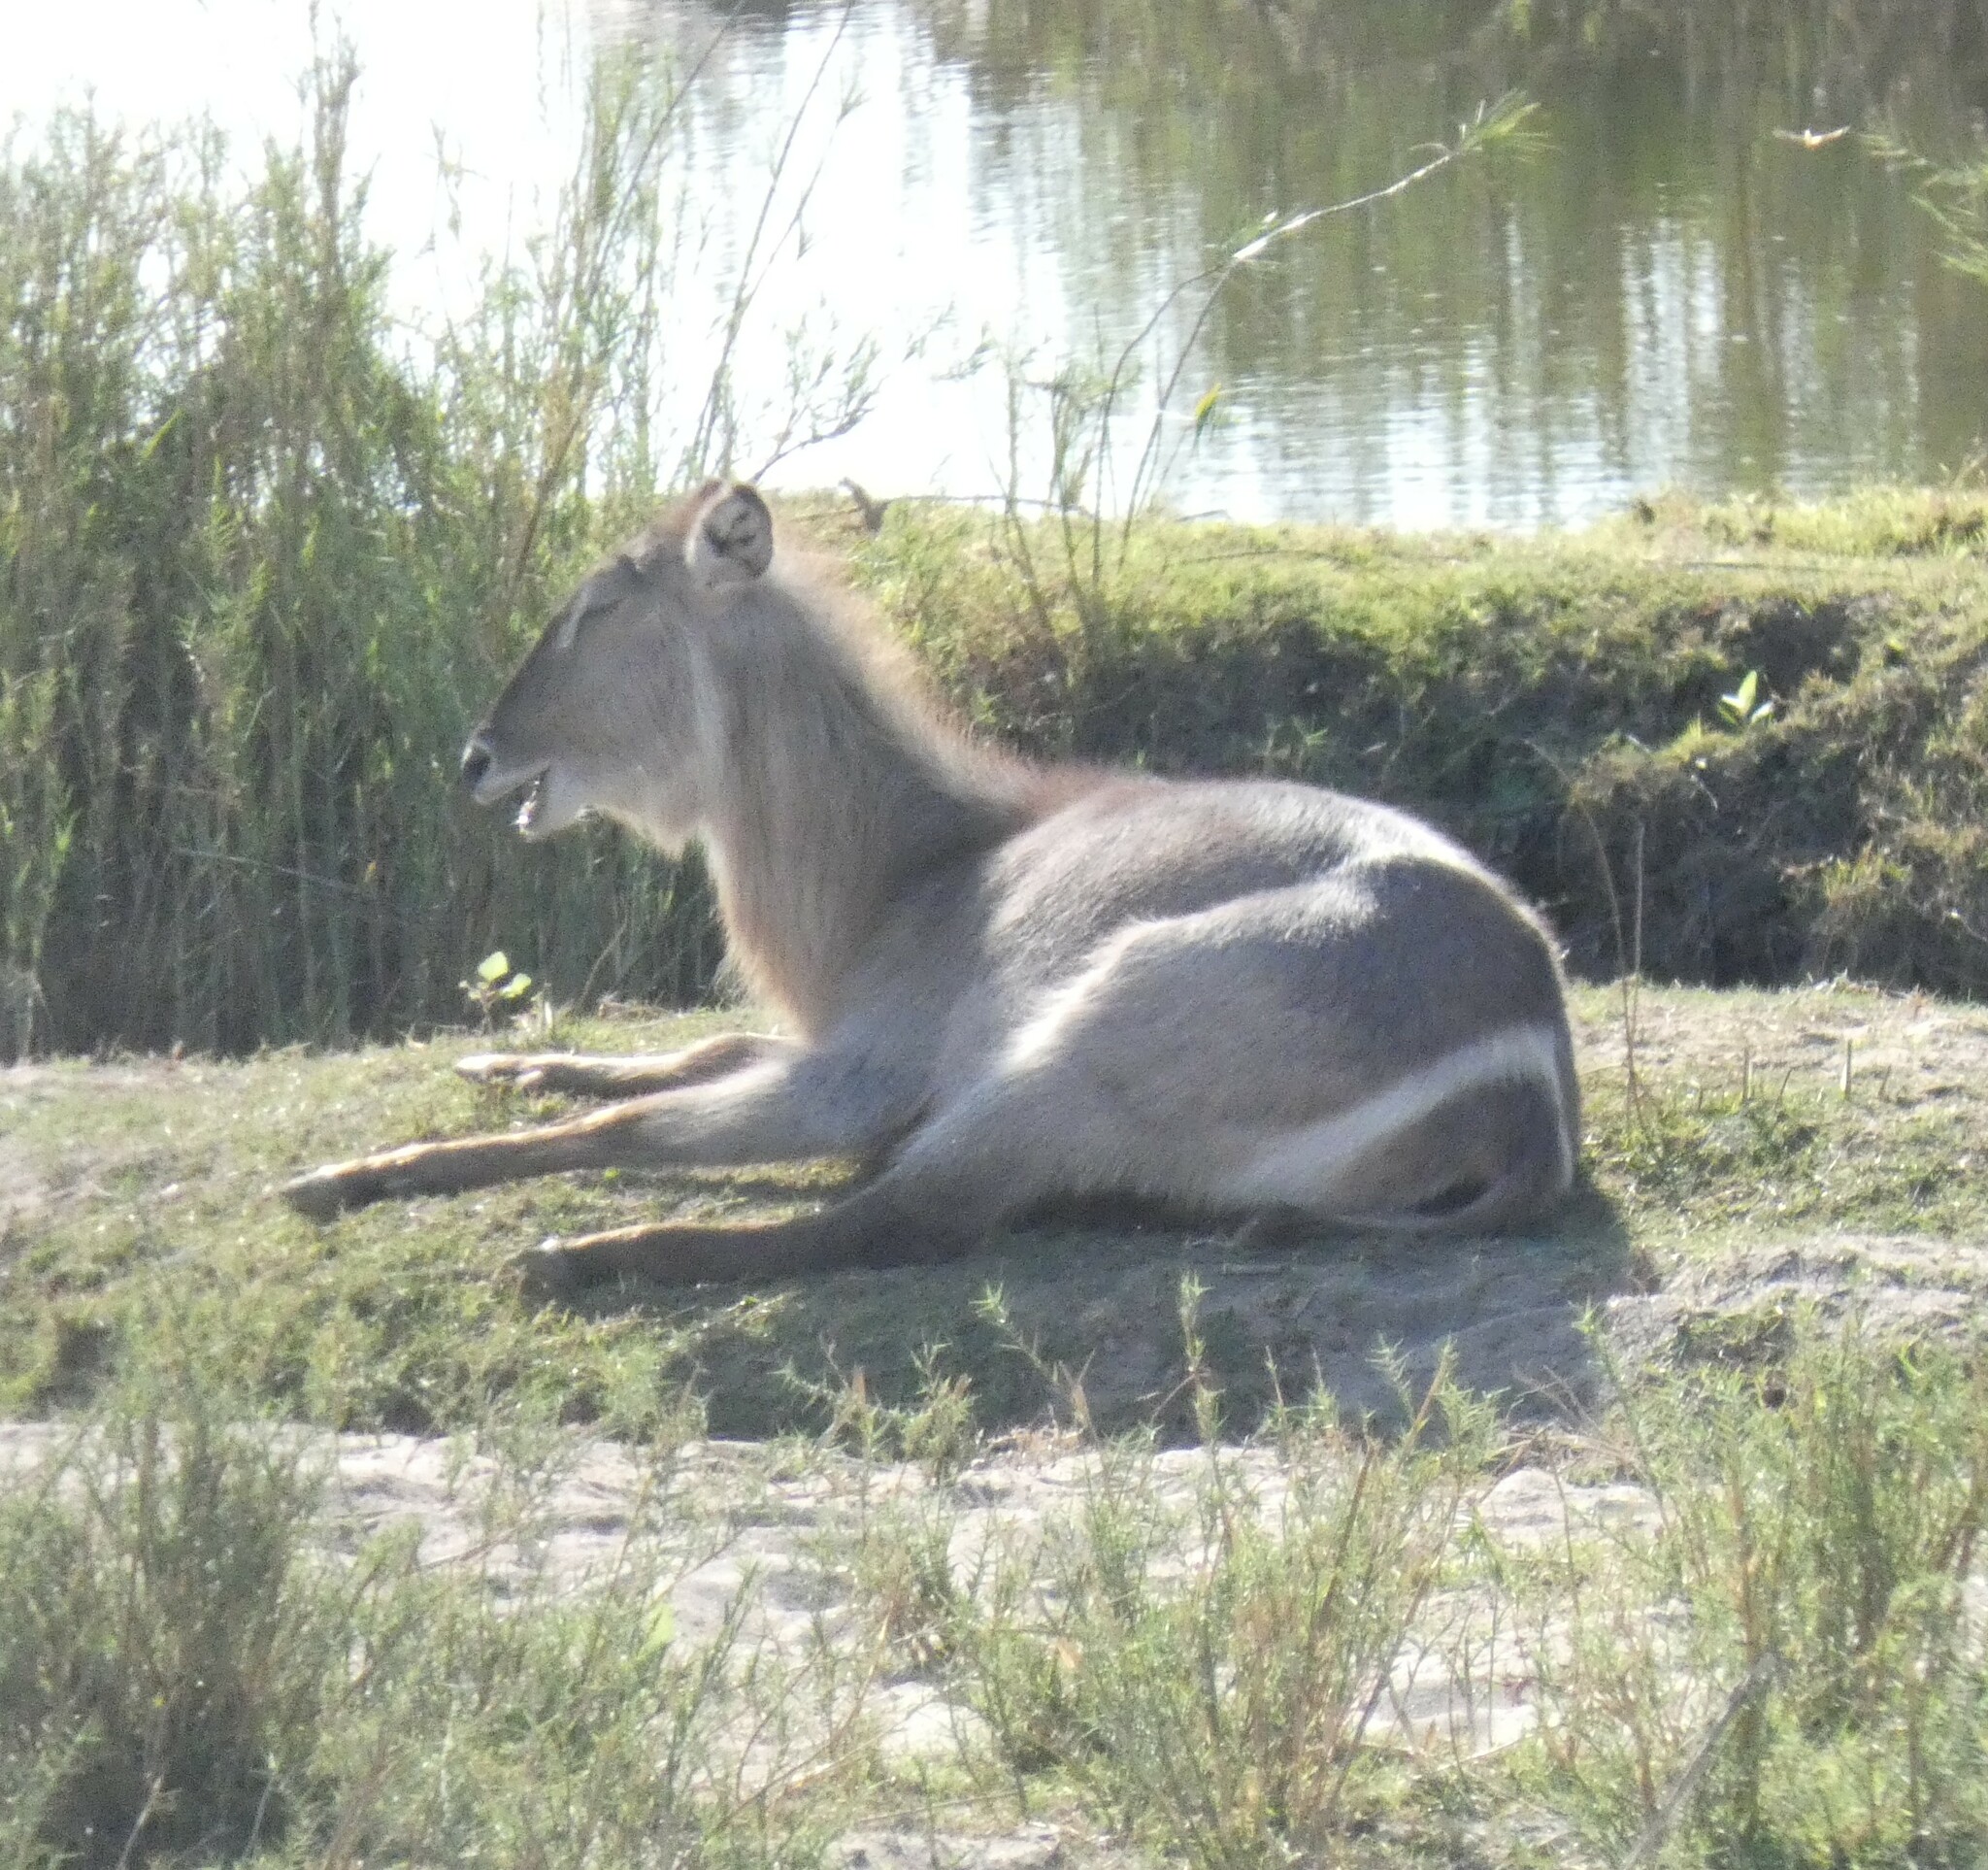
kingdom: Animalia
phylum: Chordata
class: Mammalia
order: Artiodactyla
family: Bovidae
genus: Kobus
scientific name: Kobus ellipsiprymnus
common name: Waterbuck
